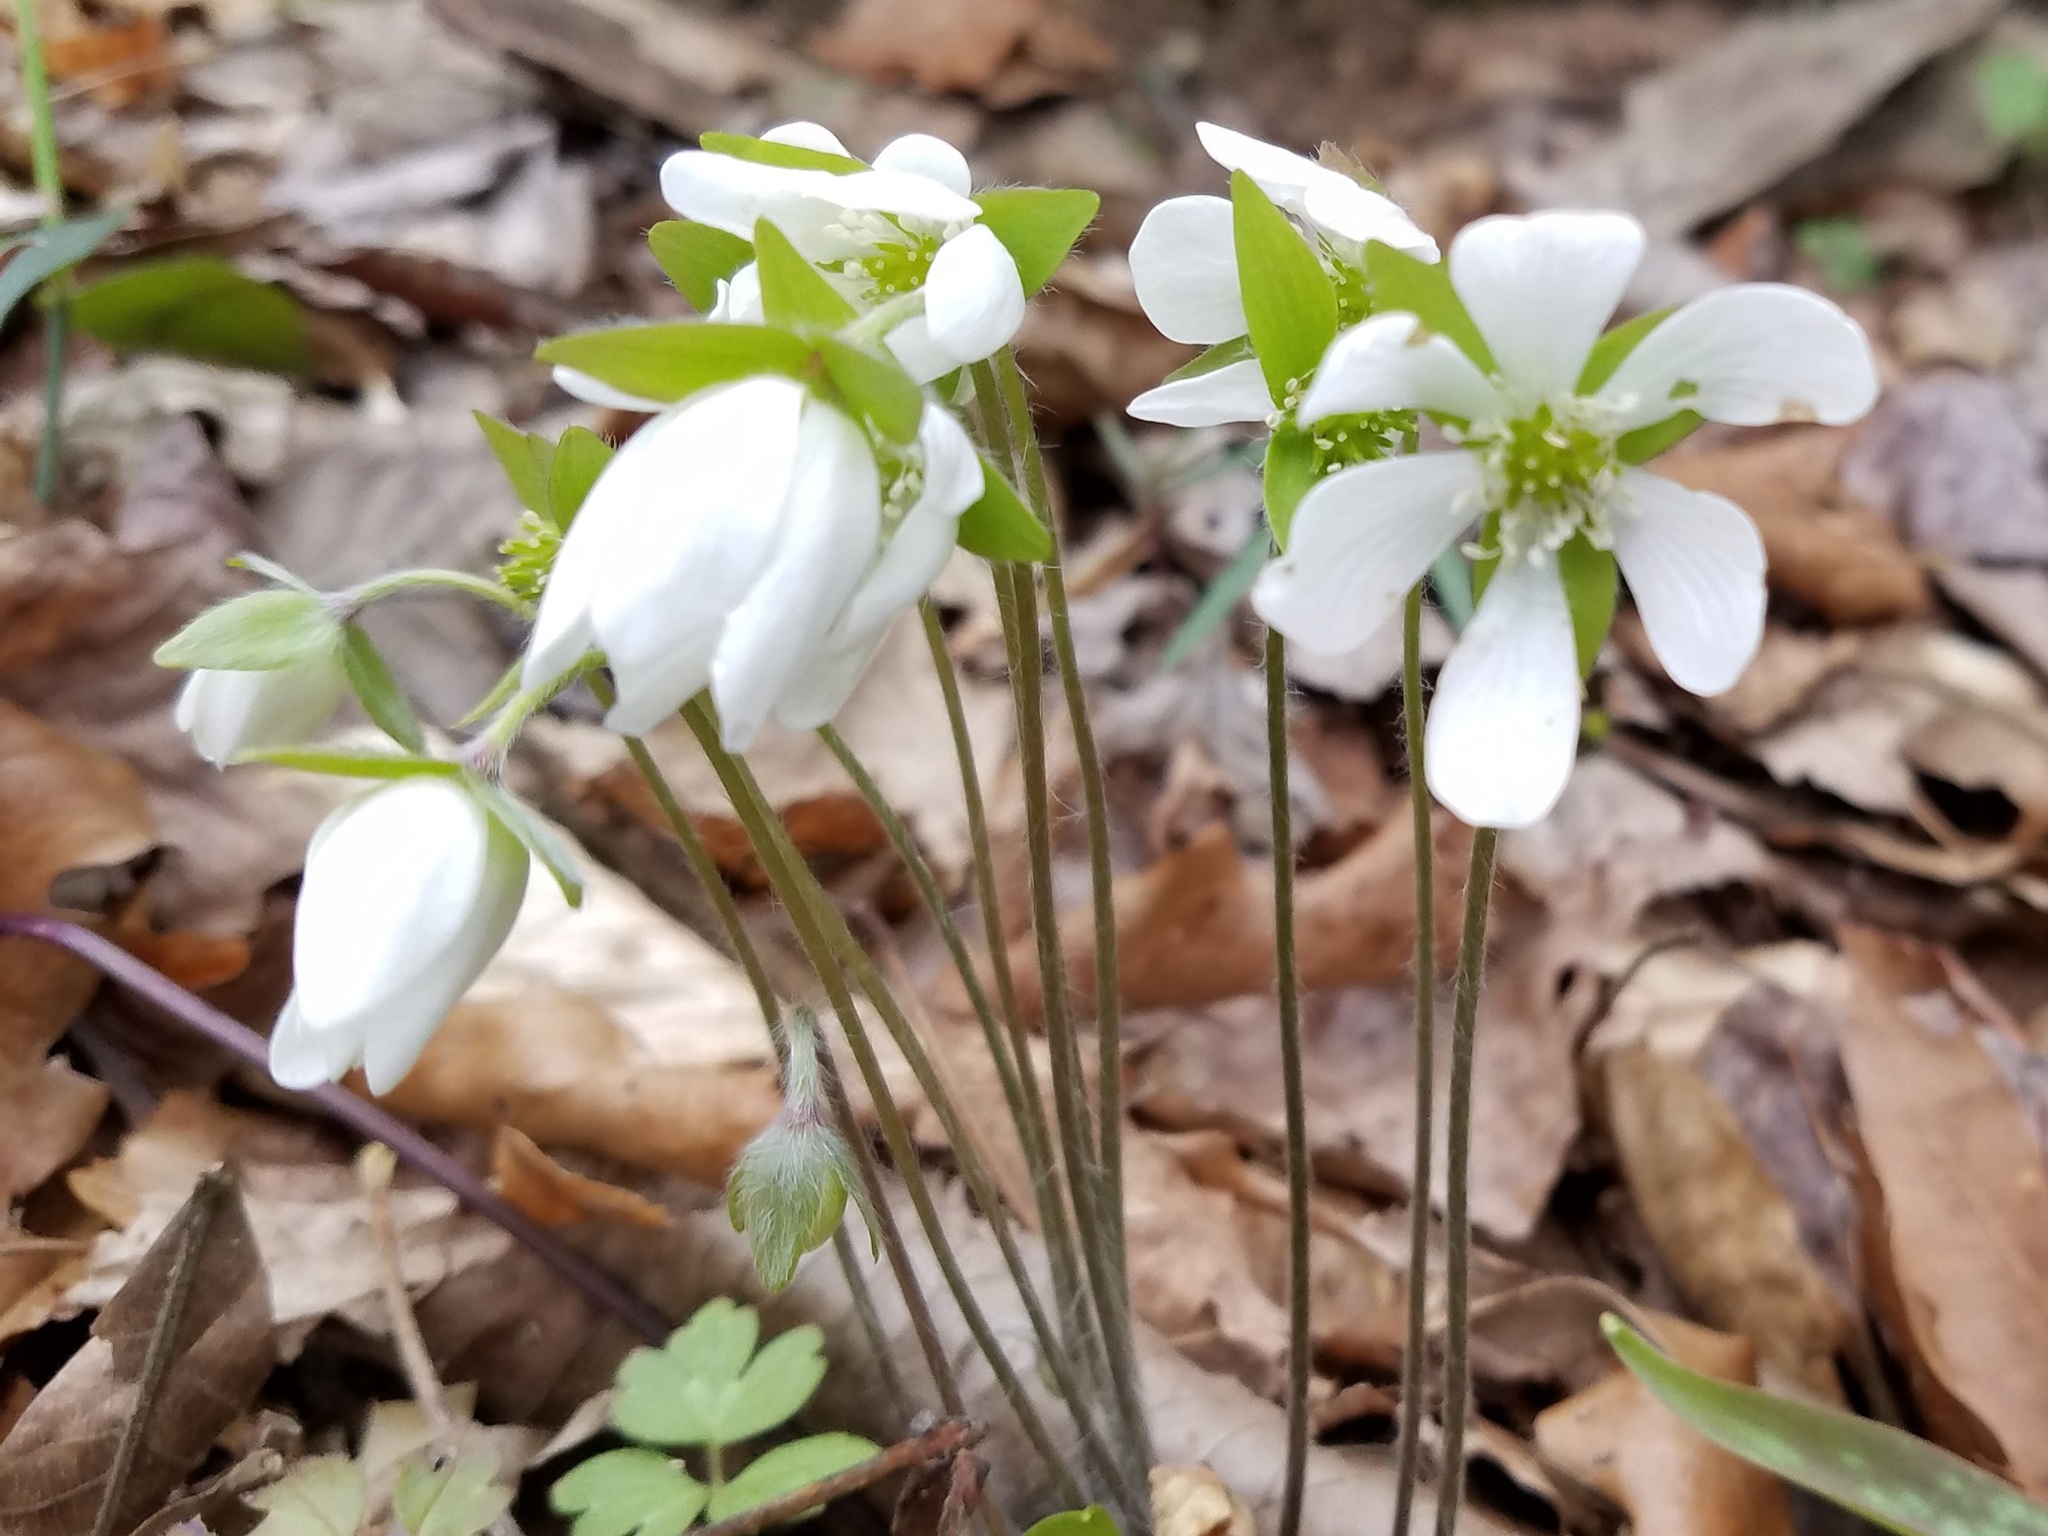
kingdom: Plantae
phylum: Tracheophyta
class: Magnoliopsida
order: Ranunculales
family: Ranunculaceae
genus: Hepatica
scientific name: Hepatica acutiloba
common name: Sharp-lobed hepatica
